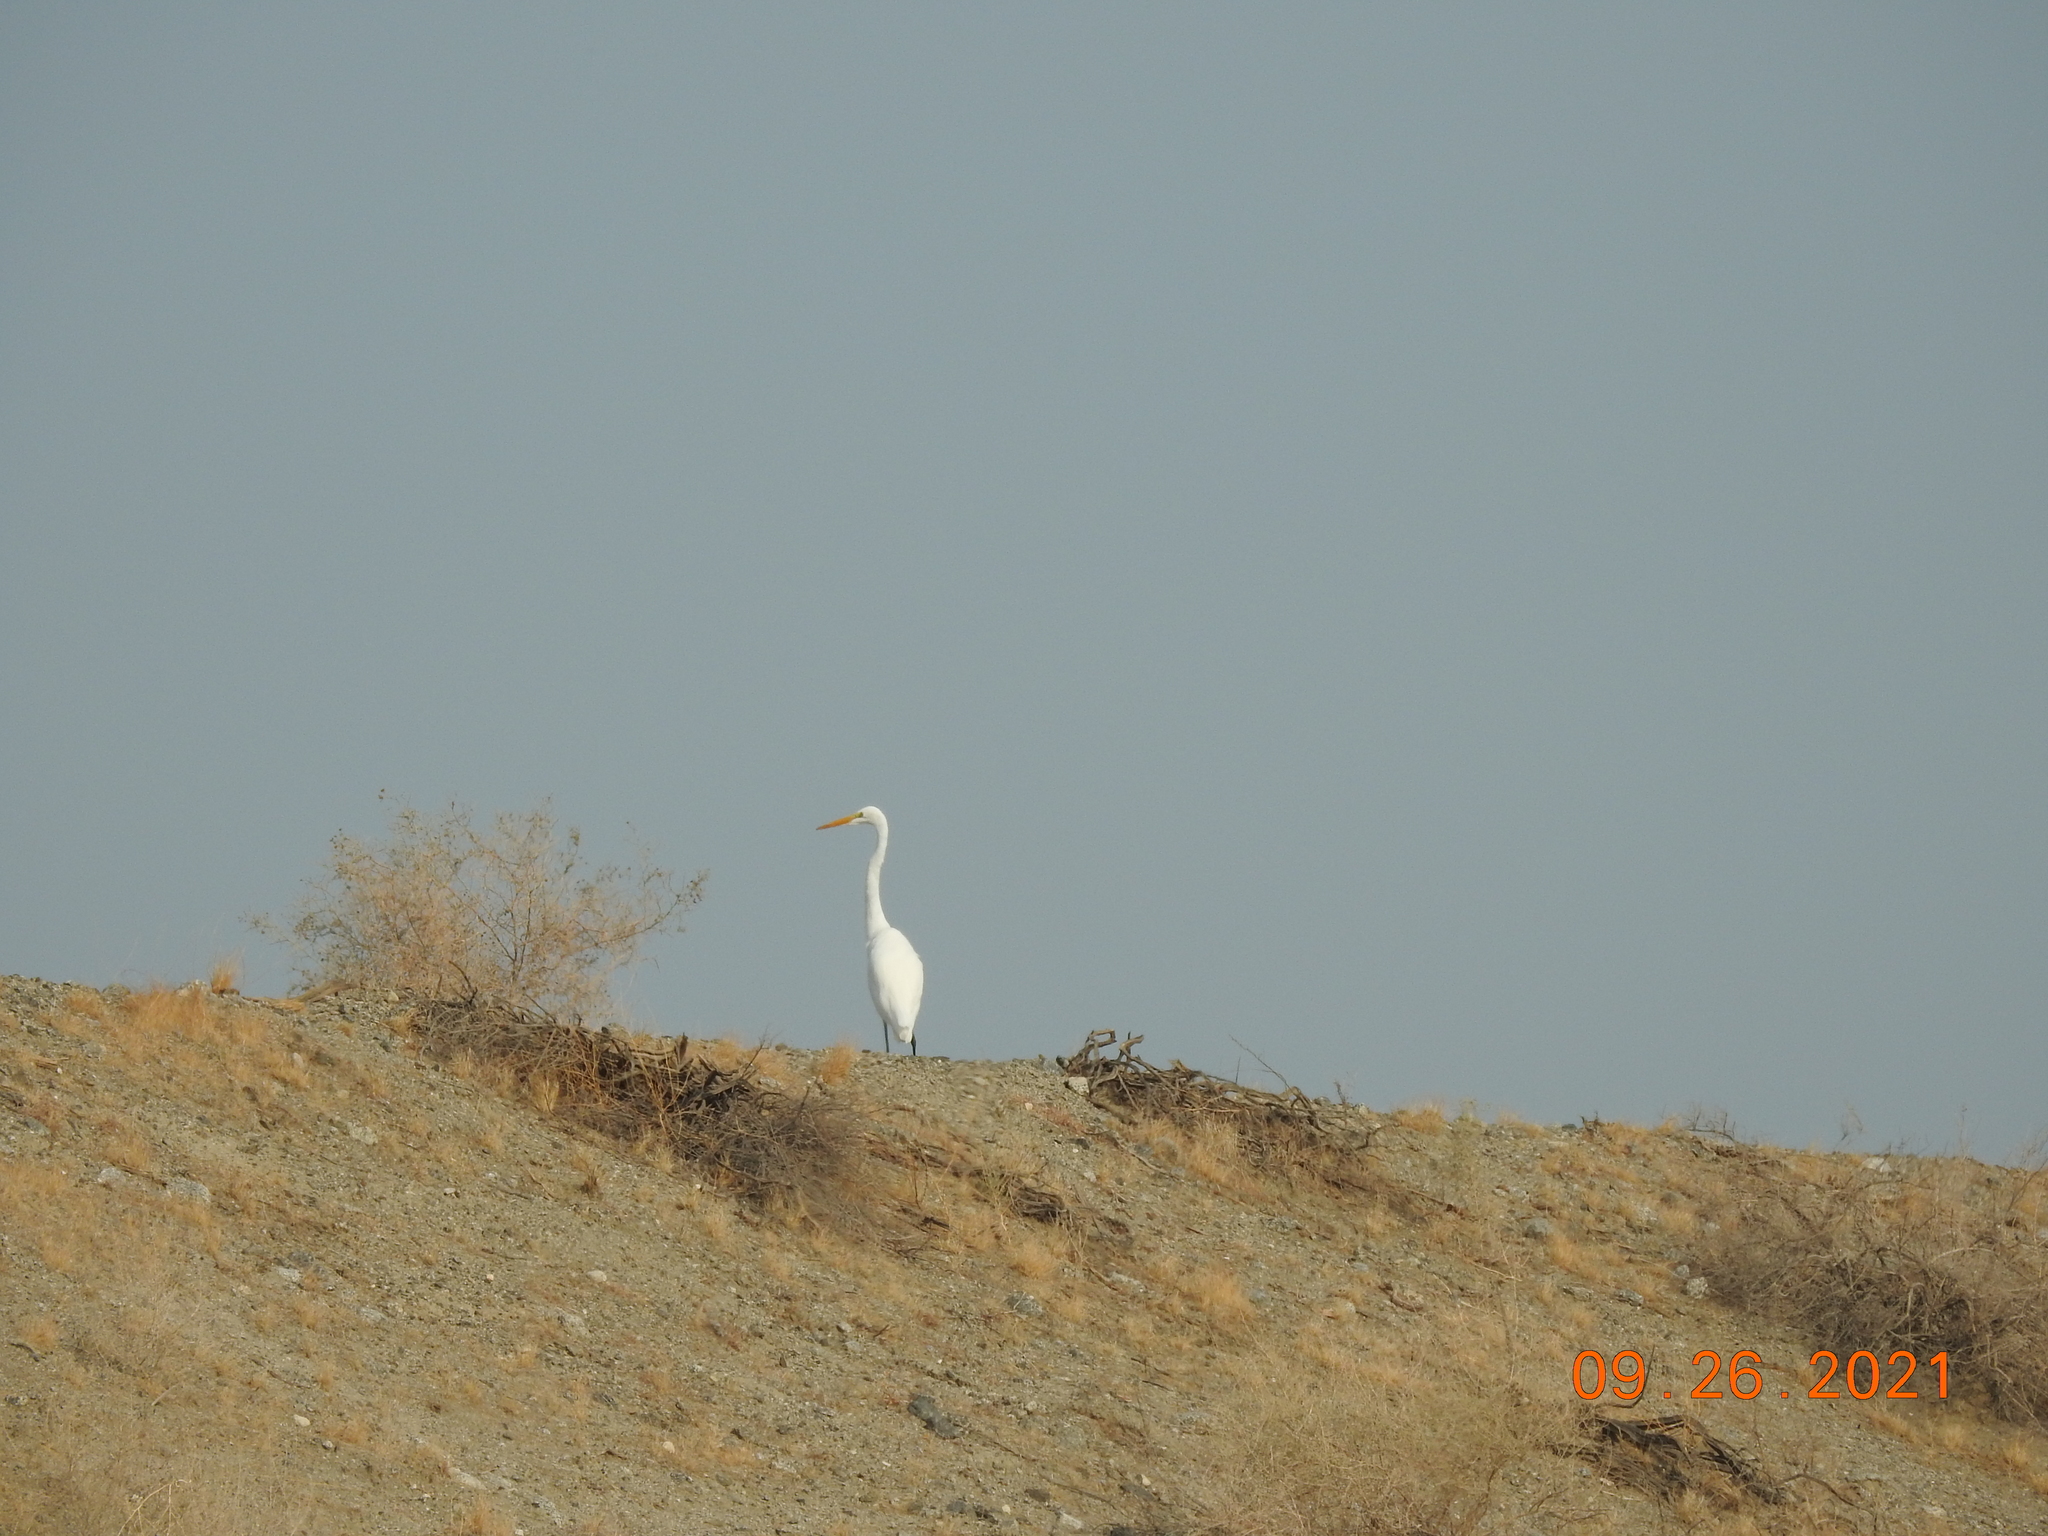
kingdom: Animalia
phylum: Chordata
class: Aves
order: Pelecaniformes
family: Ardeidae
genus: Ardea
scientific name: Ardea alba
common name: Great egret
